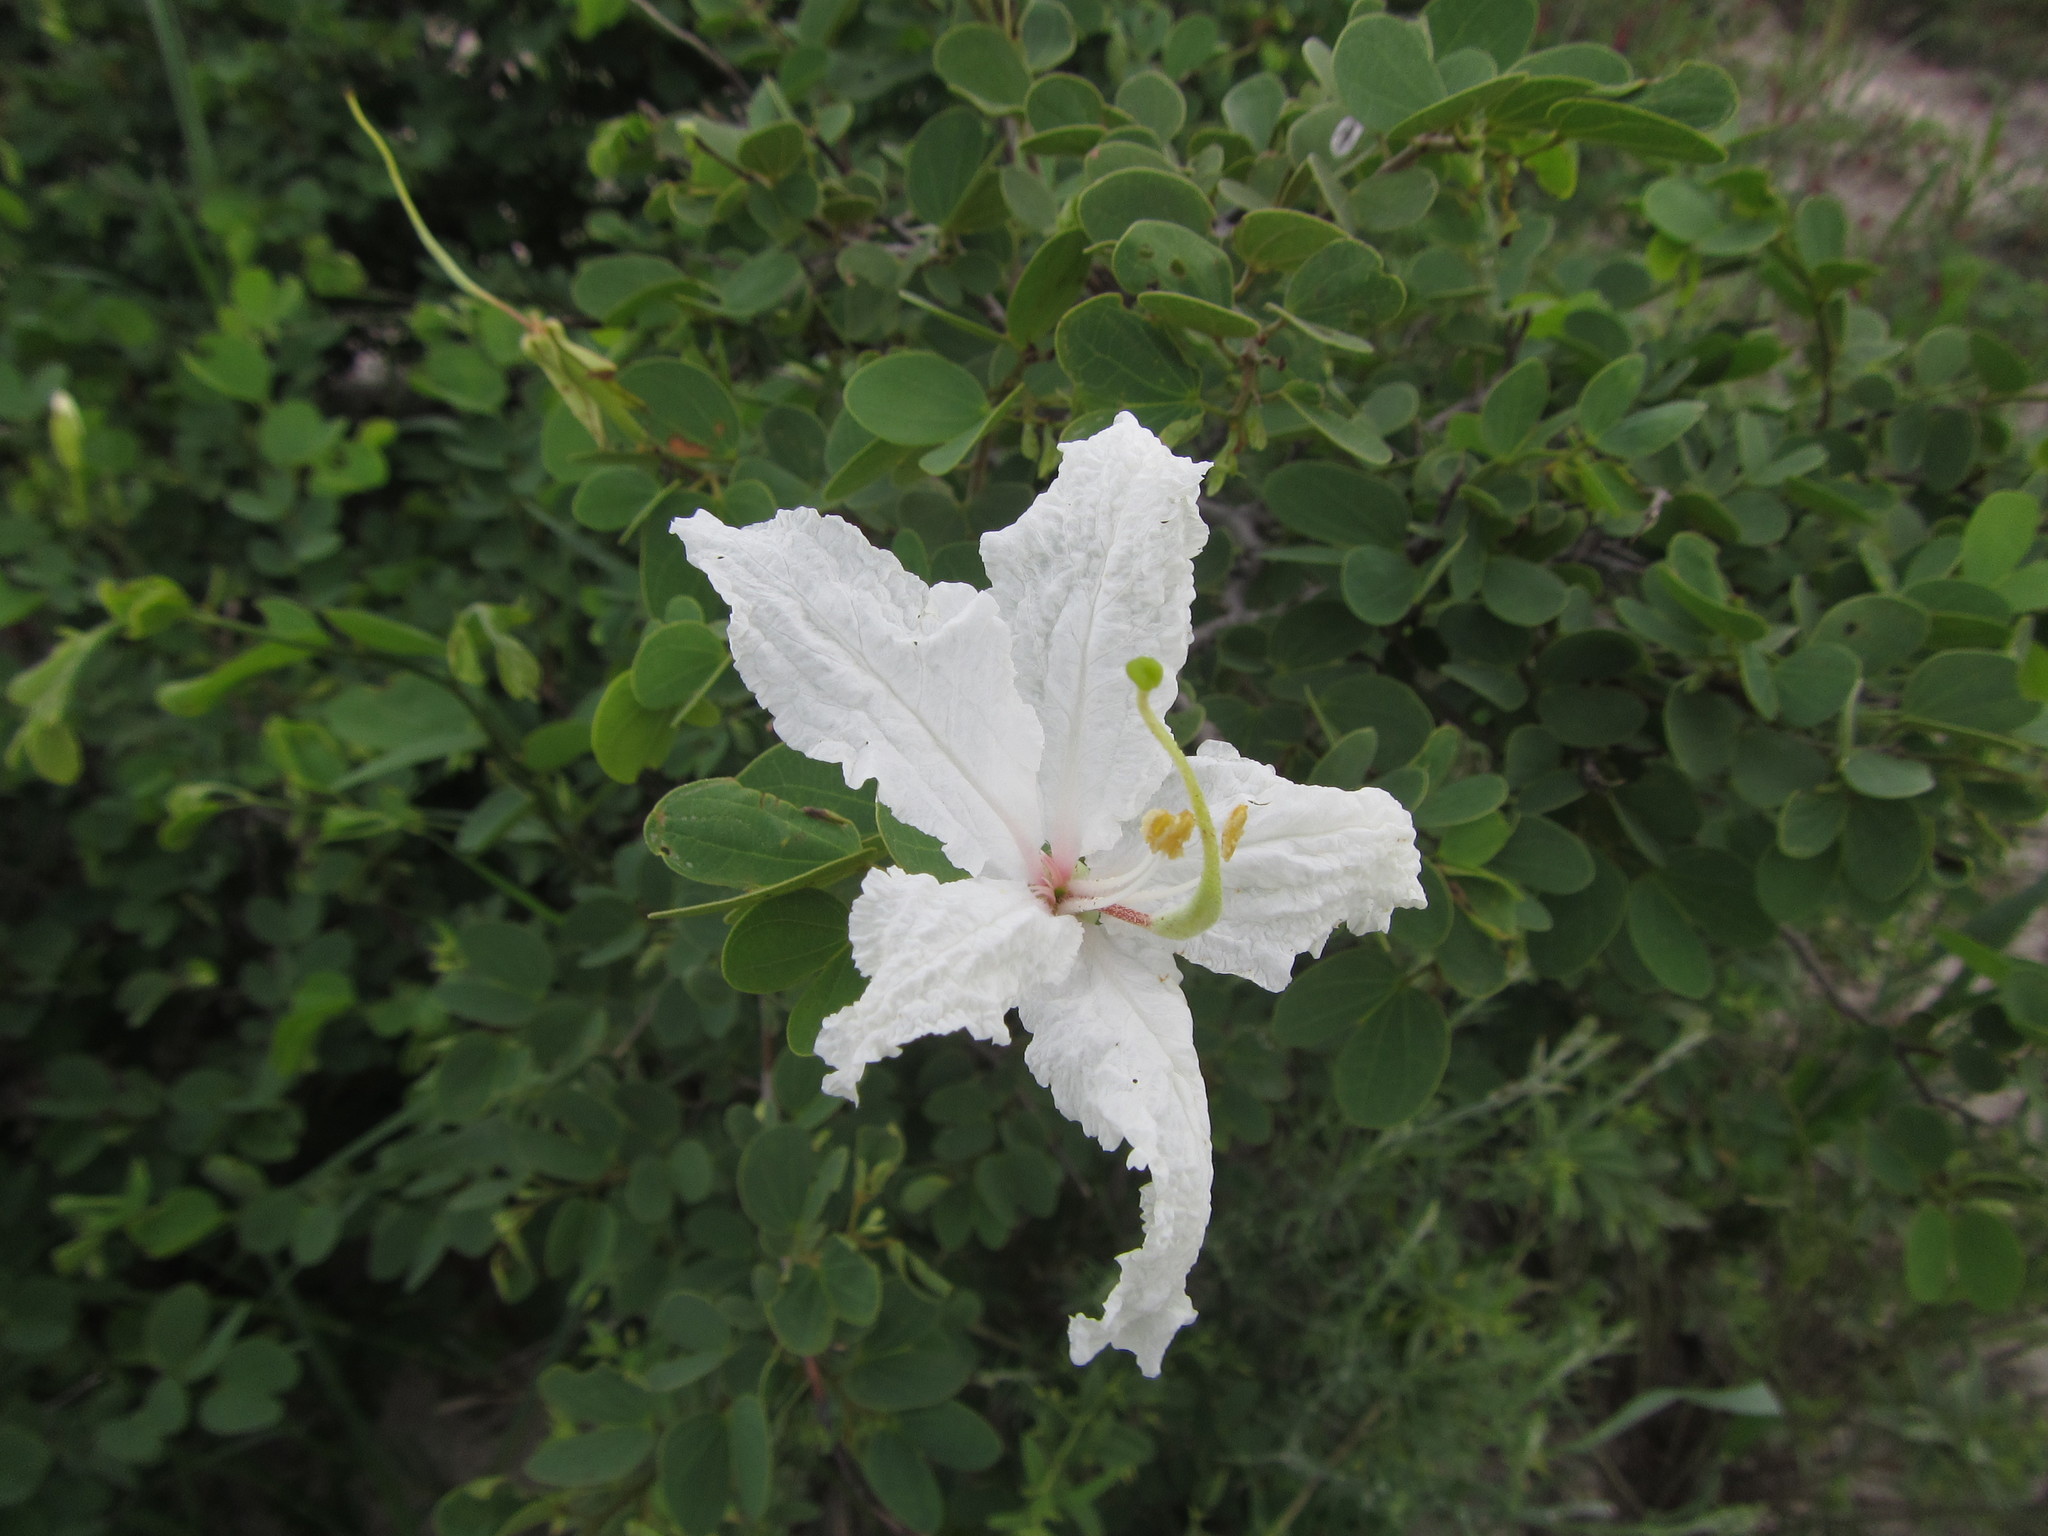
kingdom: Plantae
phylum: Tracheophyta
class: Magnoliopsida
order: Fabales
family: Fabaceae
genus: Bauhinia
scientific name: Bauhinia macrantha
